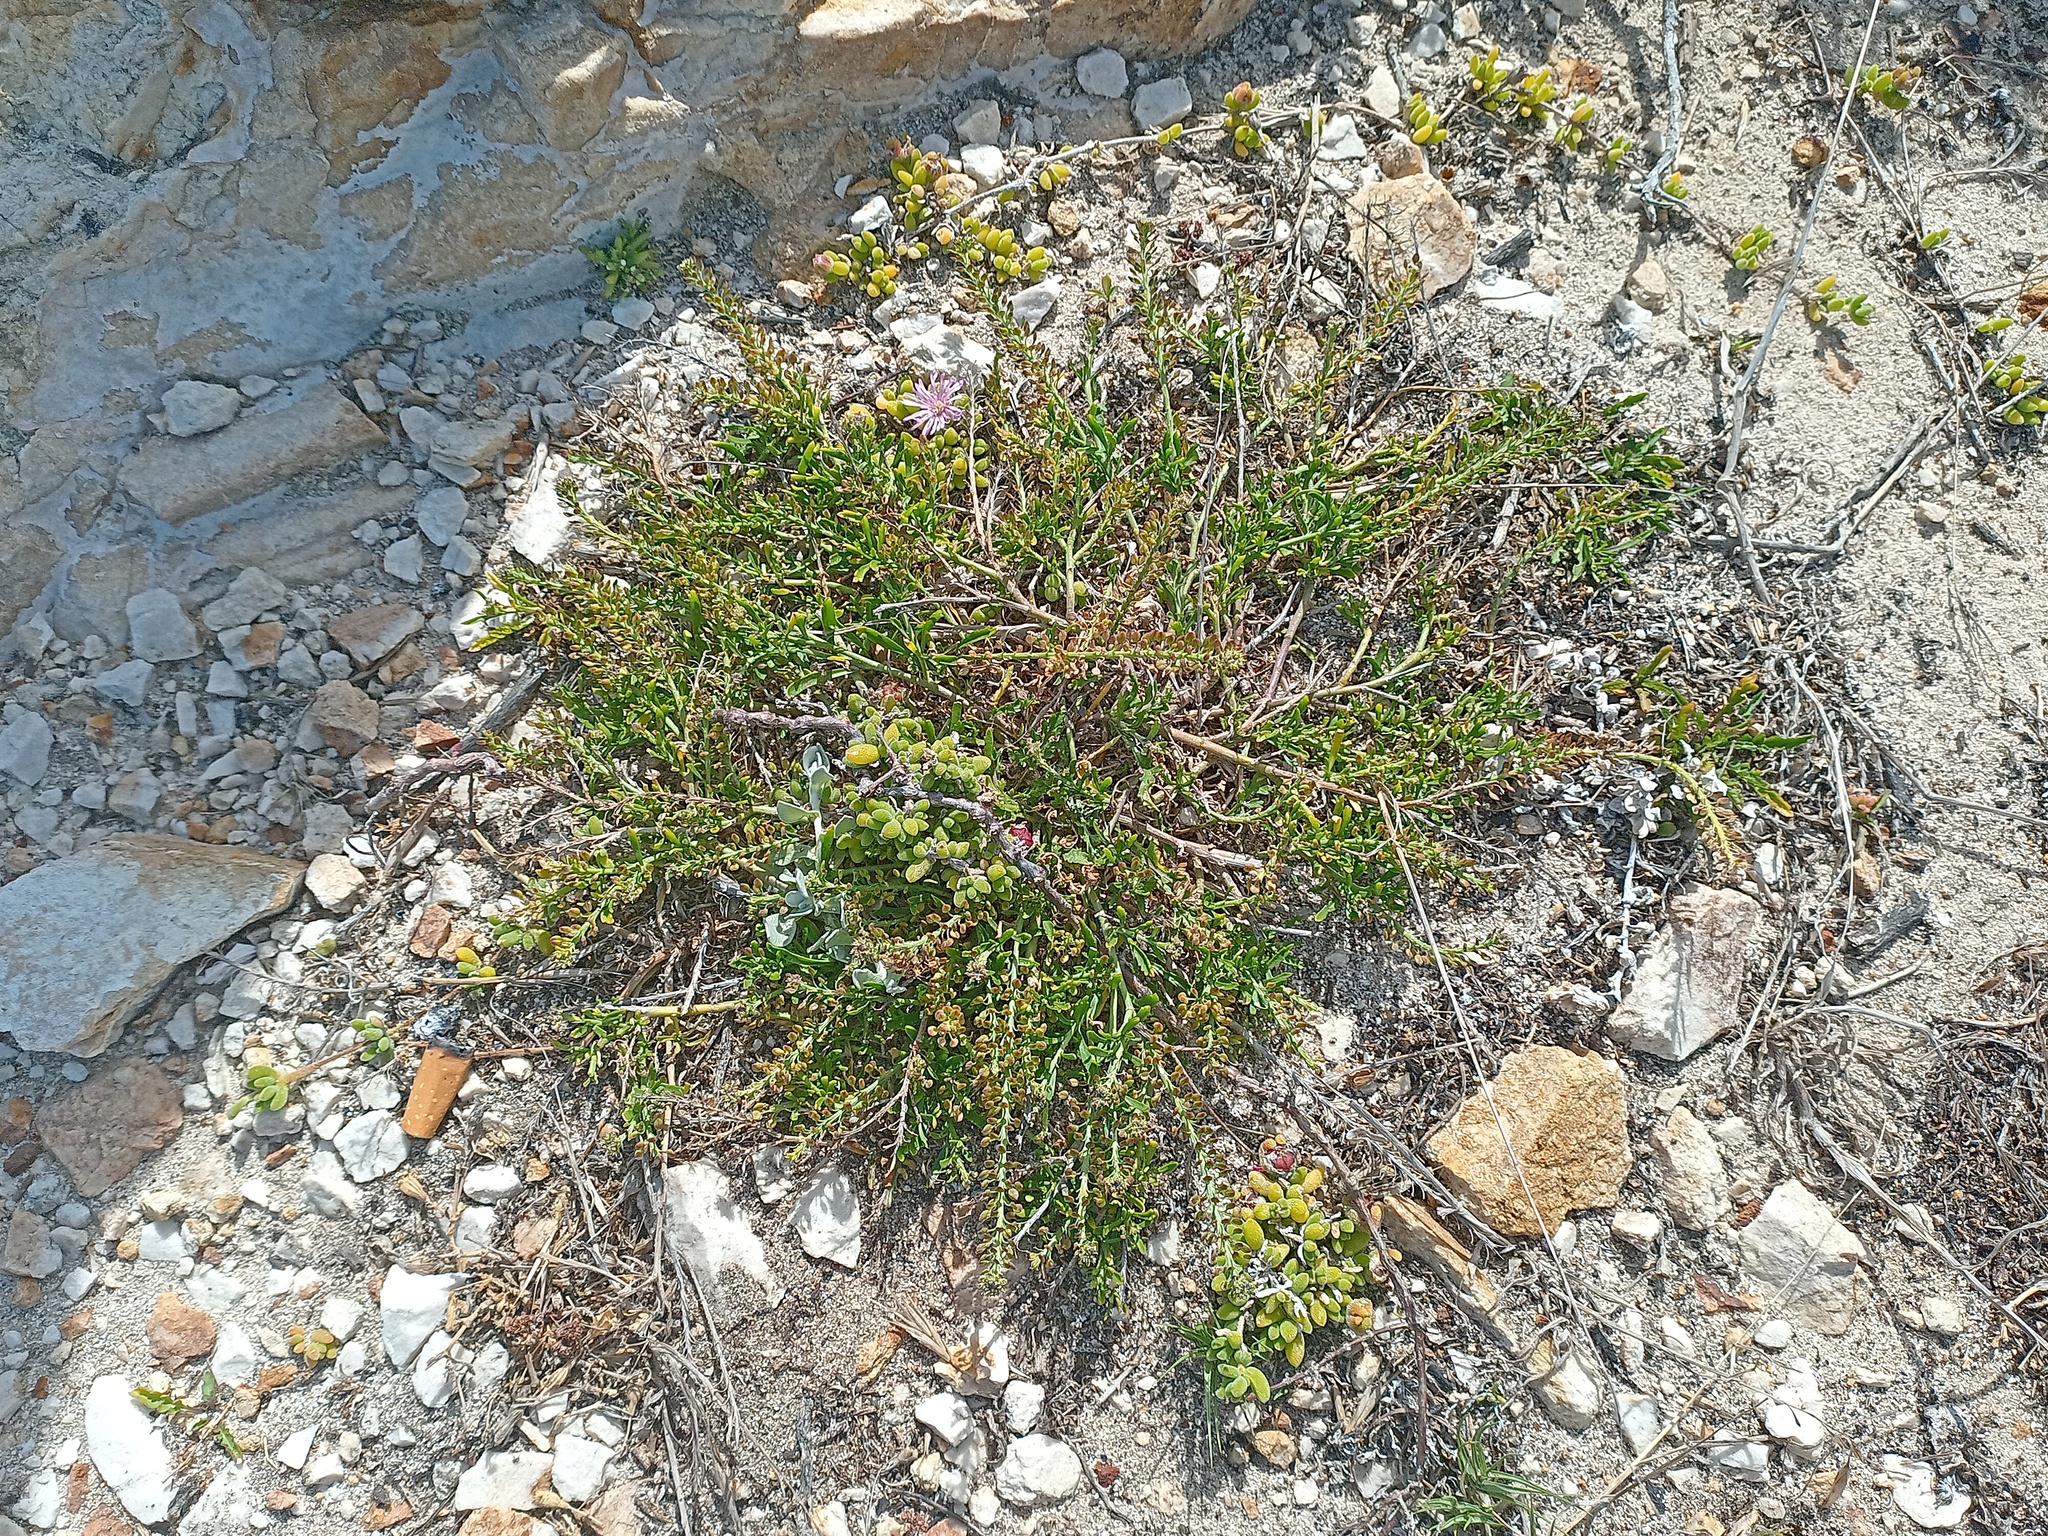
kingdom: Plantae
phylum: Tracheophyta
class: Magnoliopsida
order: Caryophyllales
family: Aizoaceae
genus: Drosanthemum
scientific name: Drosanthemum candens
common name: Rodondo-creeper
